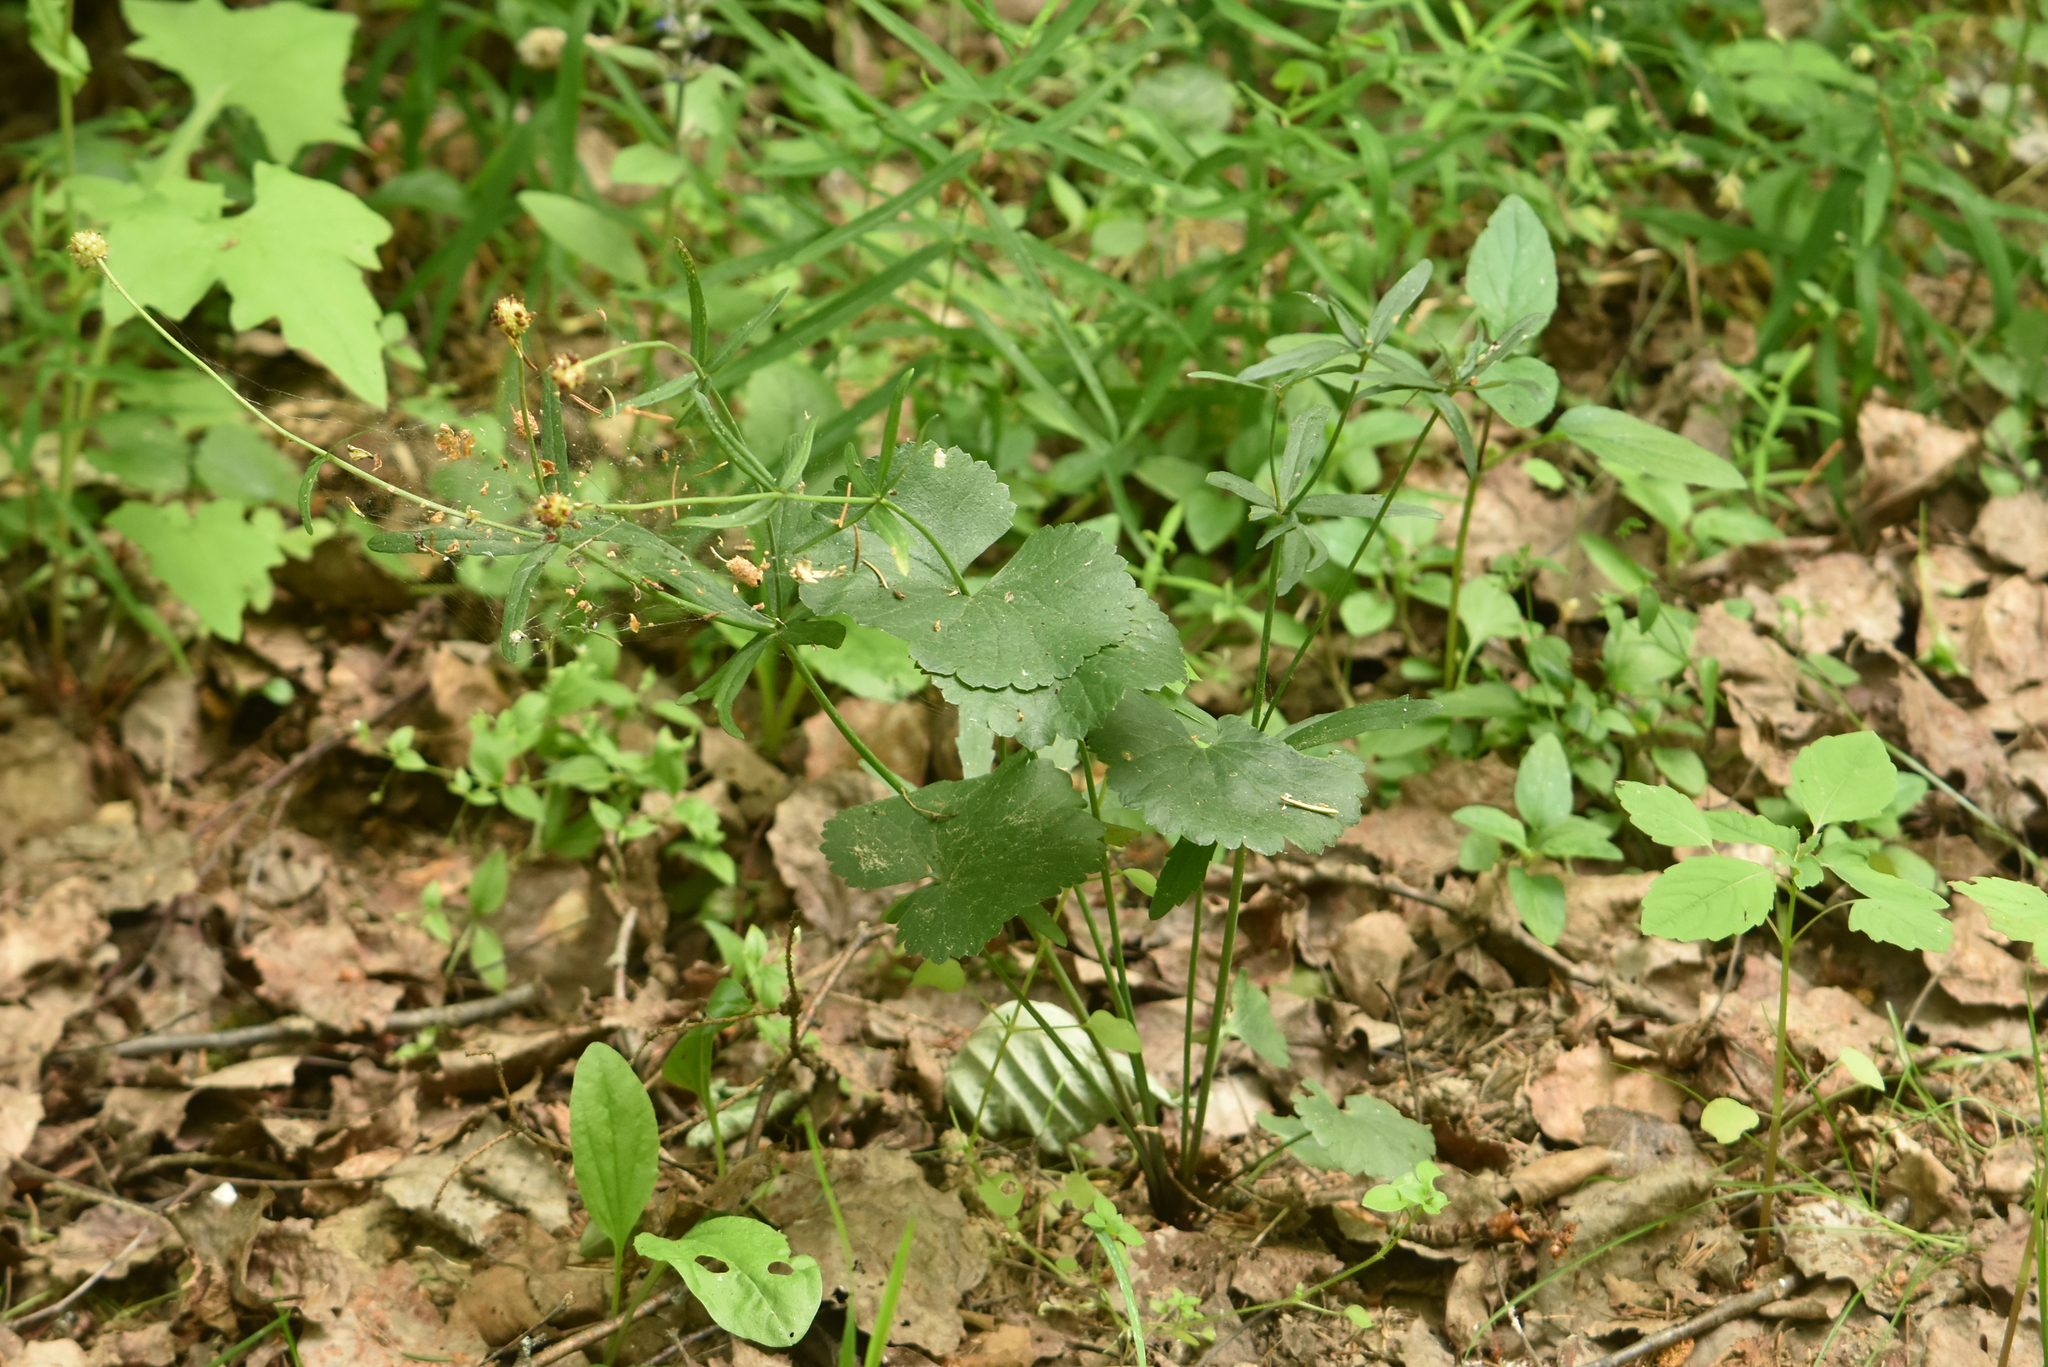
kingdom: Plantae
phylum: Tracheophyta
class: Magnoliopsida
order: Ranunculales
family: Ranunculaceae
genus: Ranunculus
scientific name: Ranunculus cassubicus
